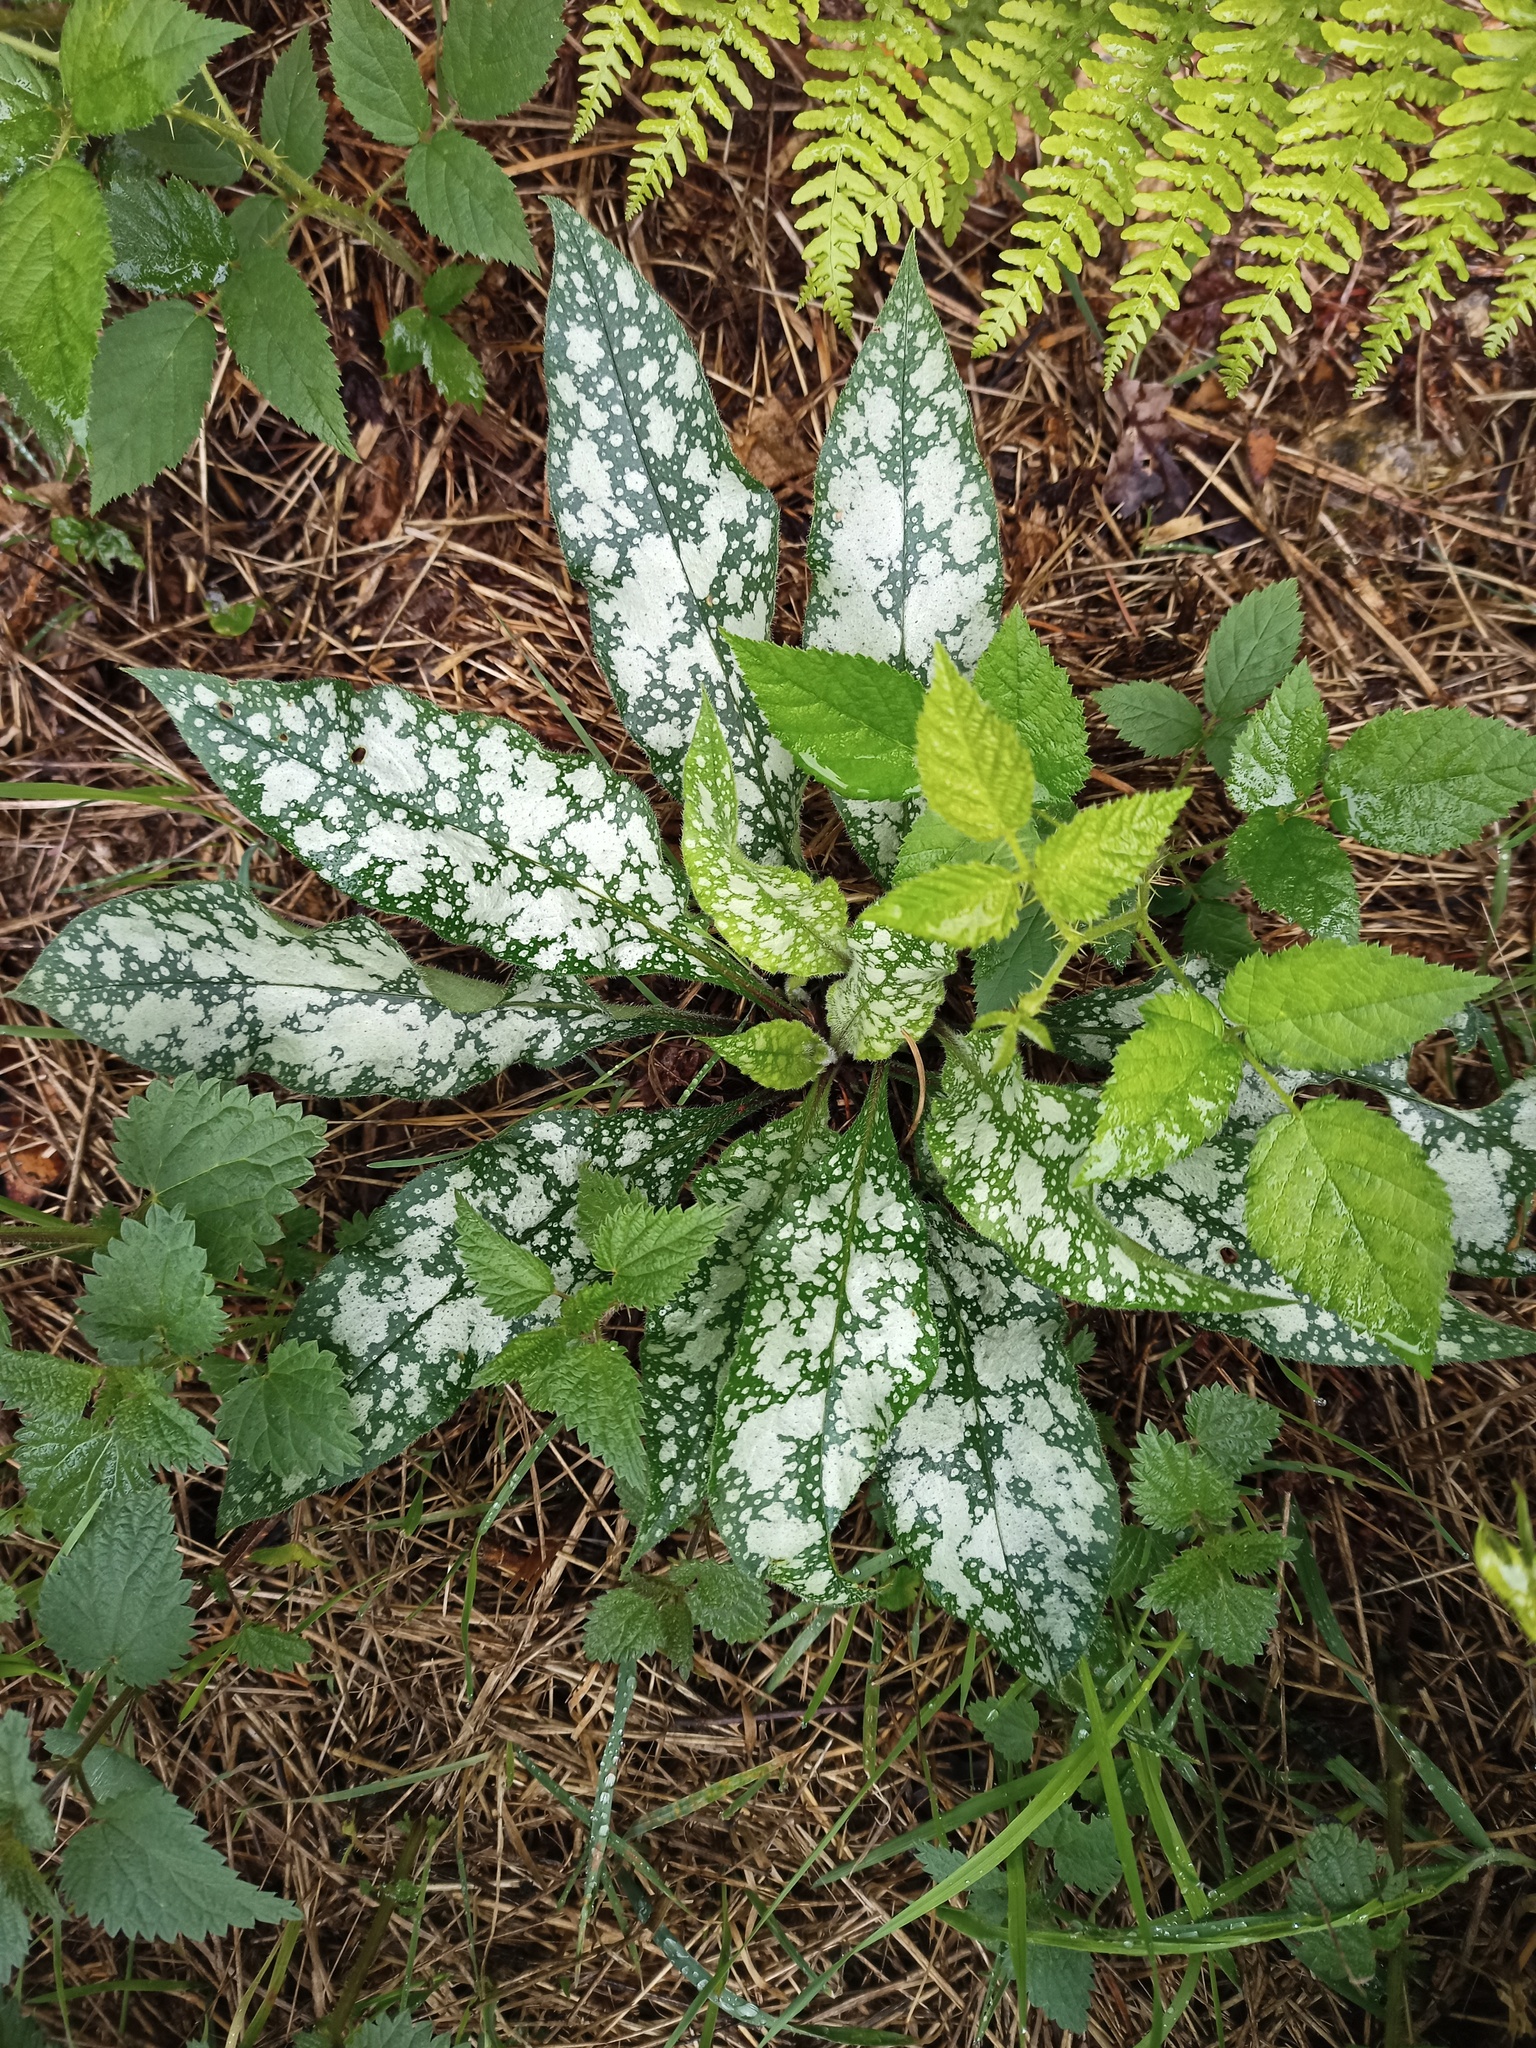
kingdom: Plantae
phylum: Tracheophyta
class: Magnoliopsida
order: Boraginales
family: Boraginaceae
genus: Pulmonaria
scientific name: Pulmonaria longifolia
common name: Narrow-leaved lungwort
